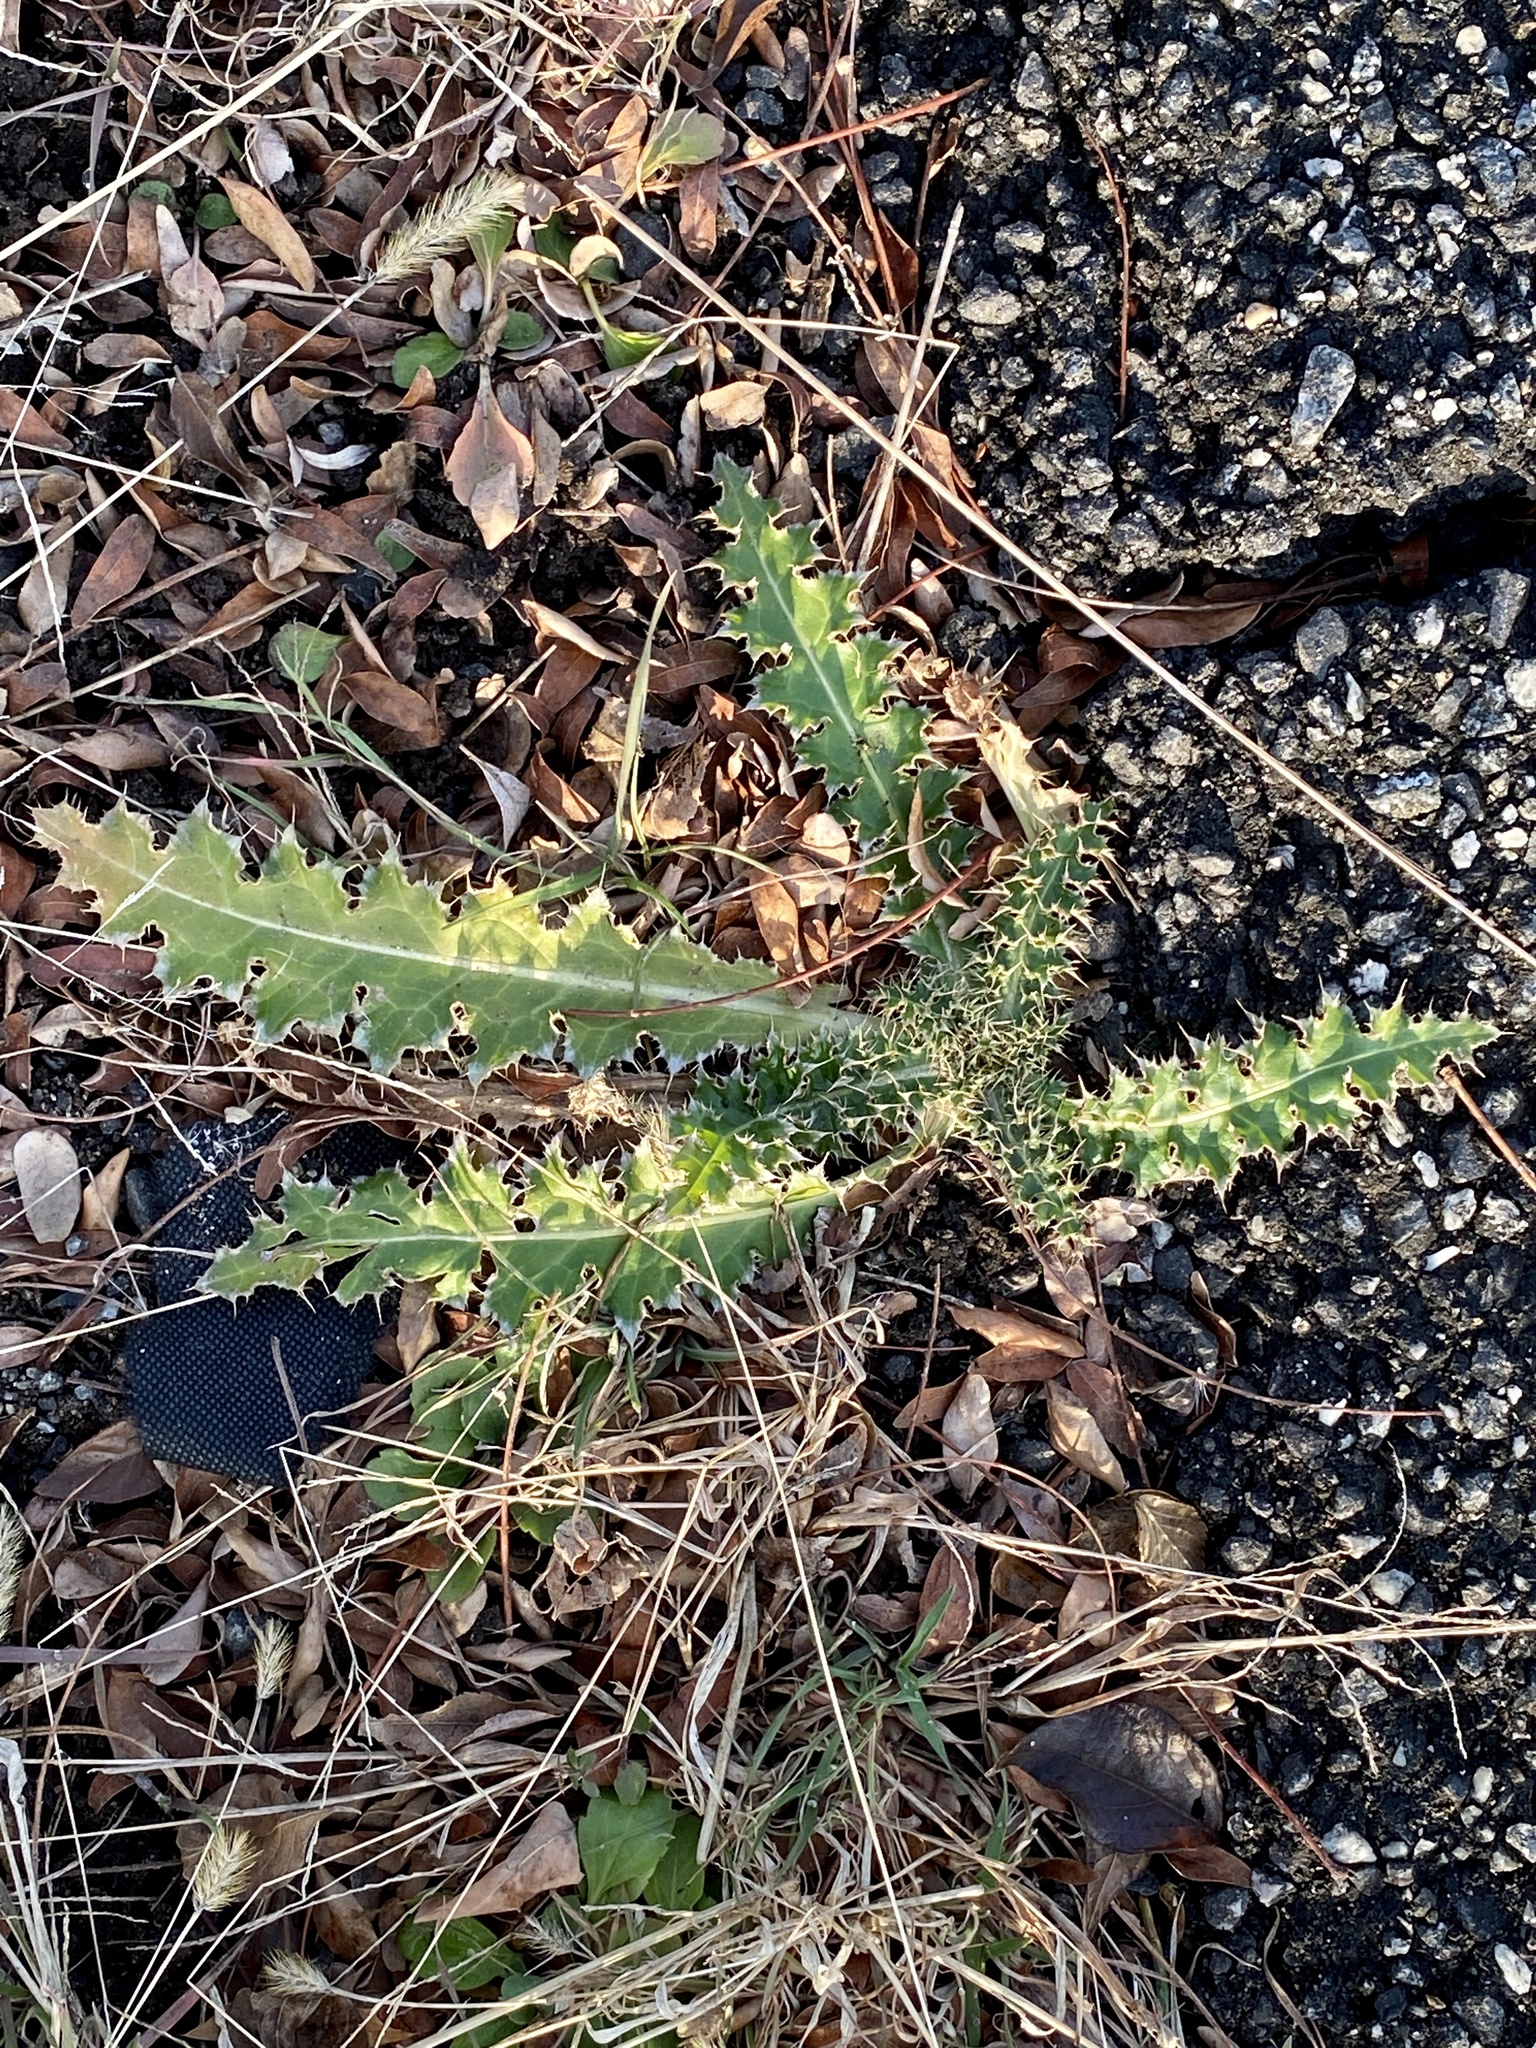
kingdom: Plantae
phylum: Tracheophyta
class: Magnoliopsida
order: Asterales
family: Asteraceae
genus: Carduus
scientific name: Carduus nutans
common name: Musk thistle
